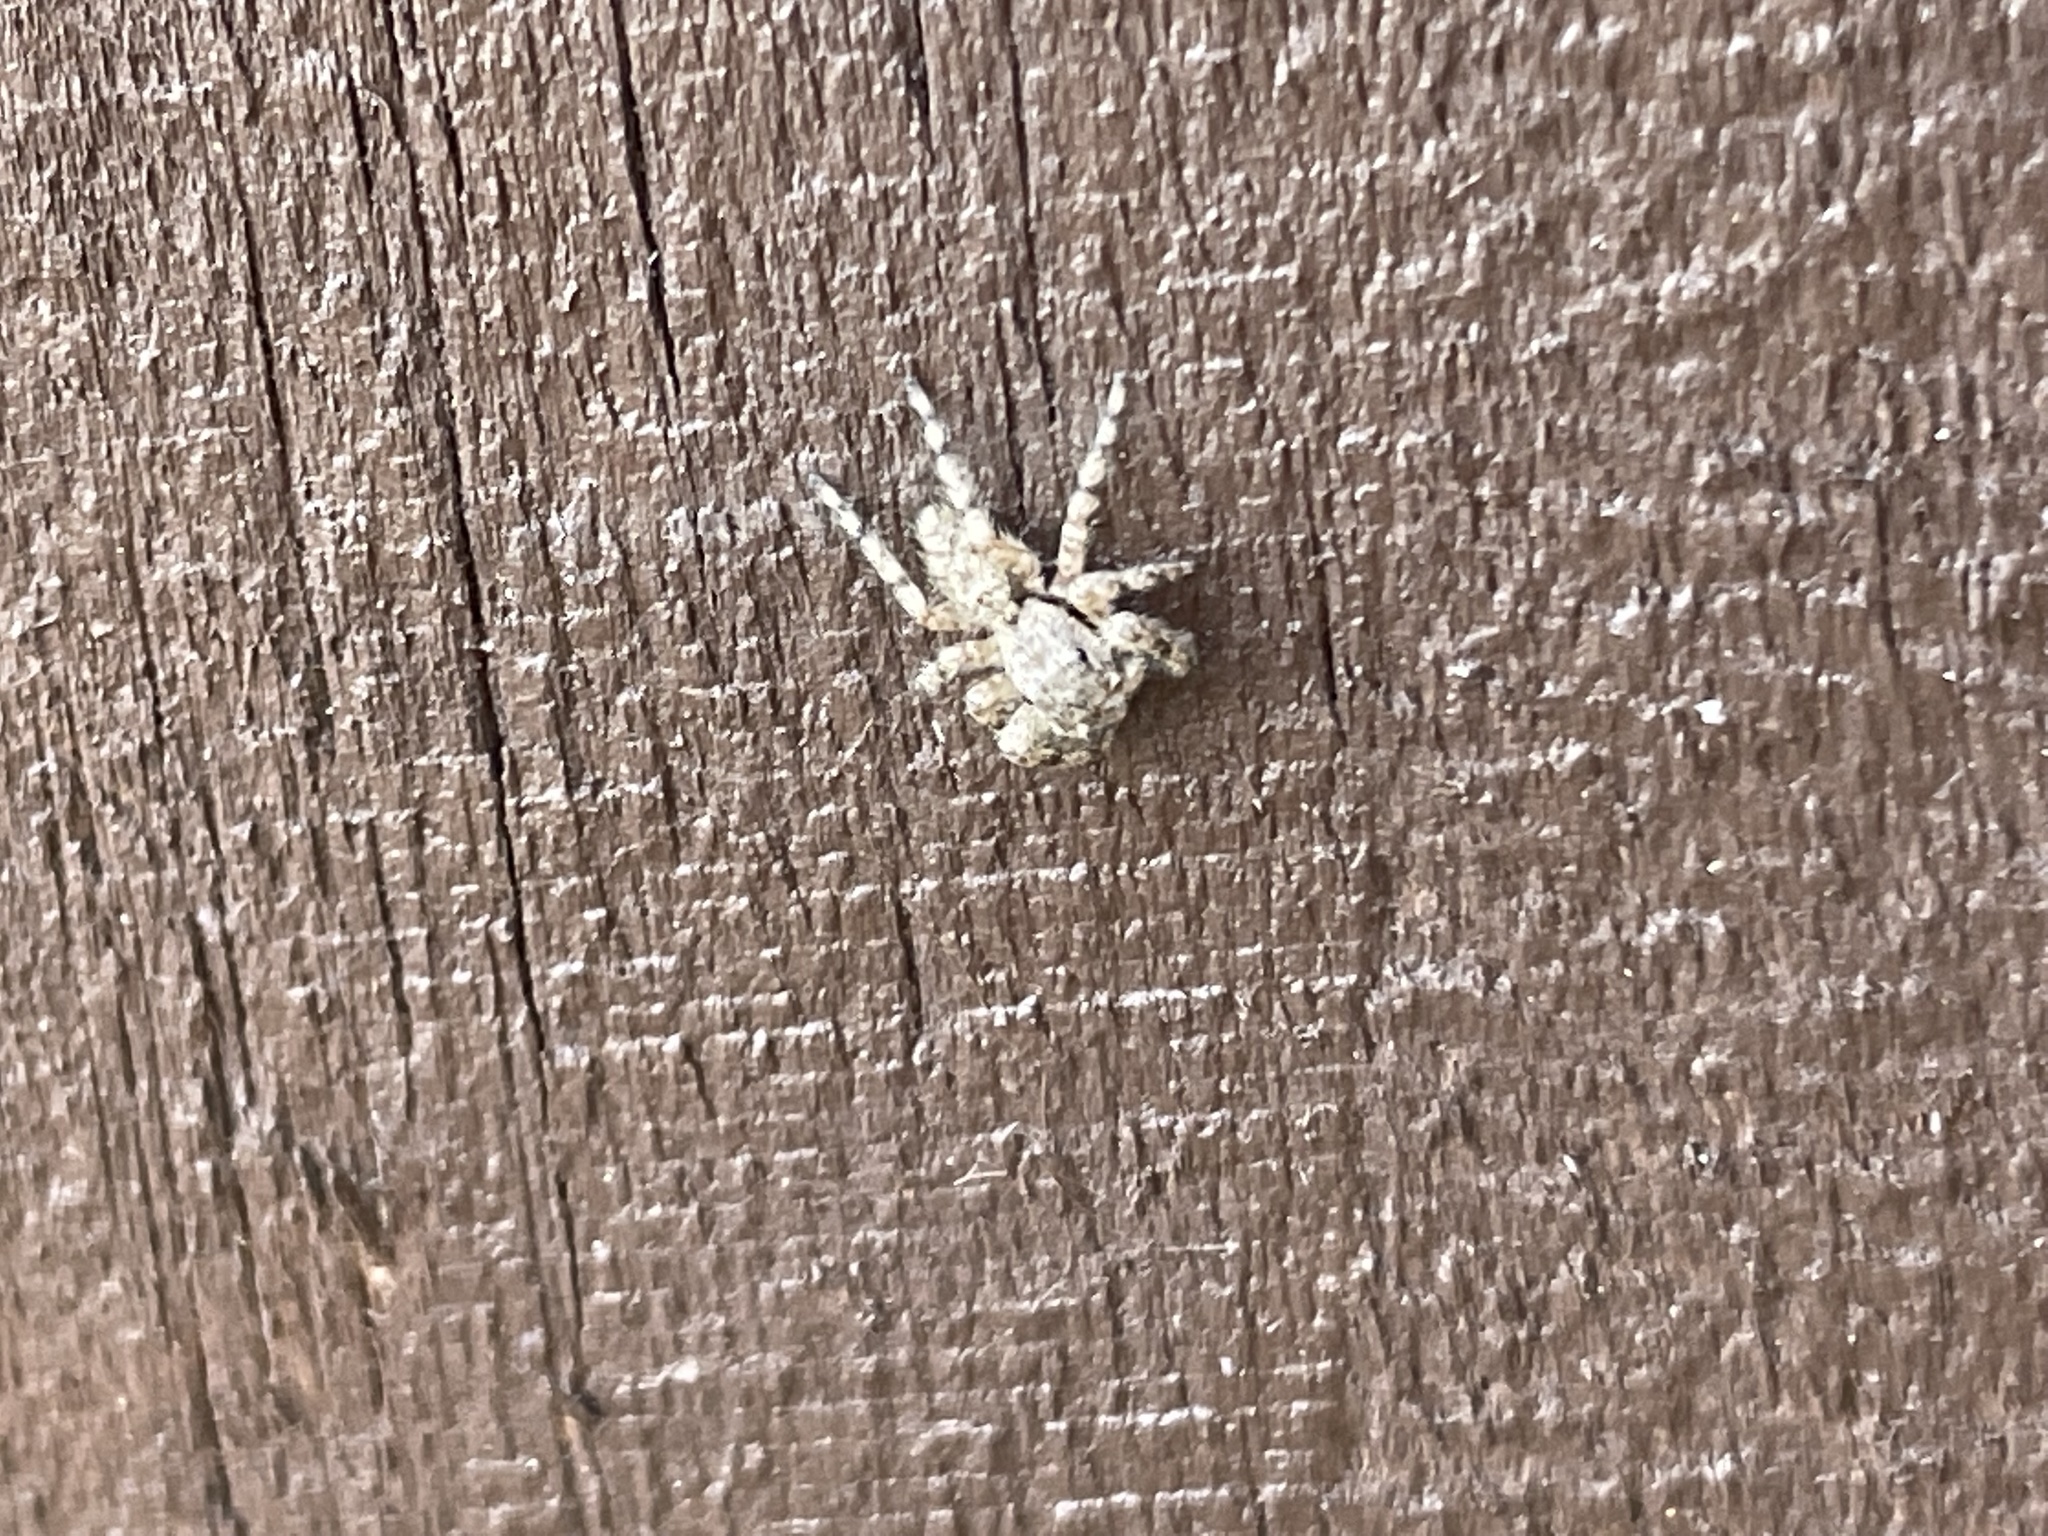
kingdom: Animalia
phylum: Arthropoda
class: Arachnida
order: Araneae
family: Salticidae
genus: Platycryptus
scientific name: Platycryptus undatus
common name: Tan jumping spider
